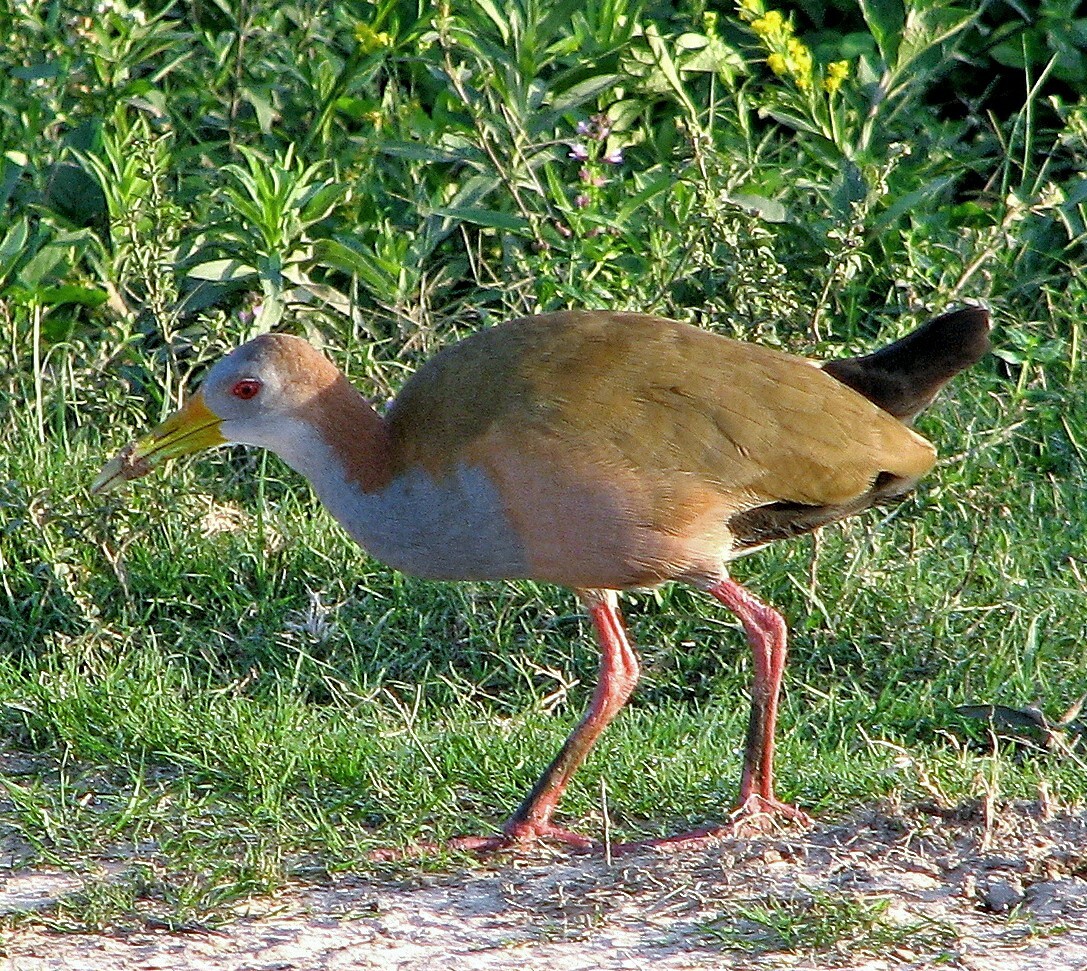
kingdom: Animalia
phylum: Chordata
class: Aves
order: Gruiformes
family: Rallidae
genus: Aramides
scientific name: Aramides ypecaha
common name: Giant wood rail
